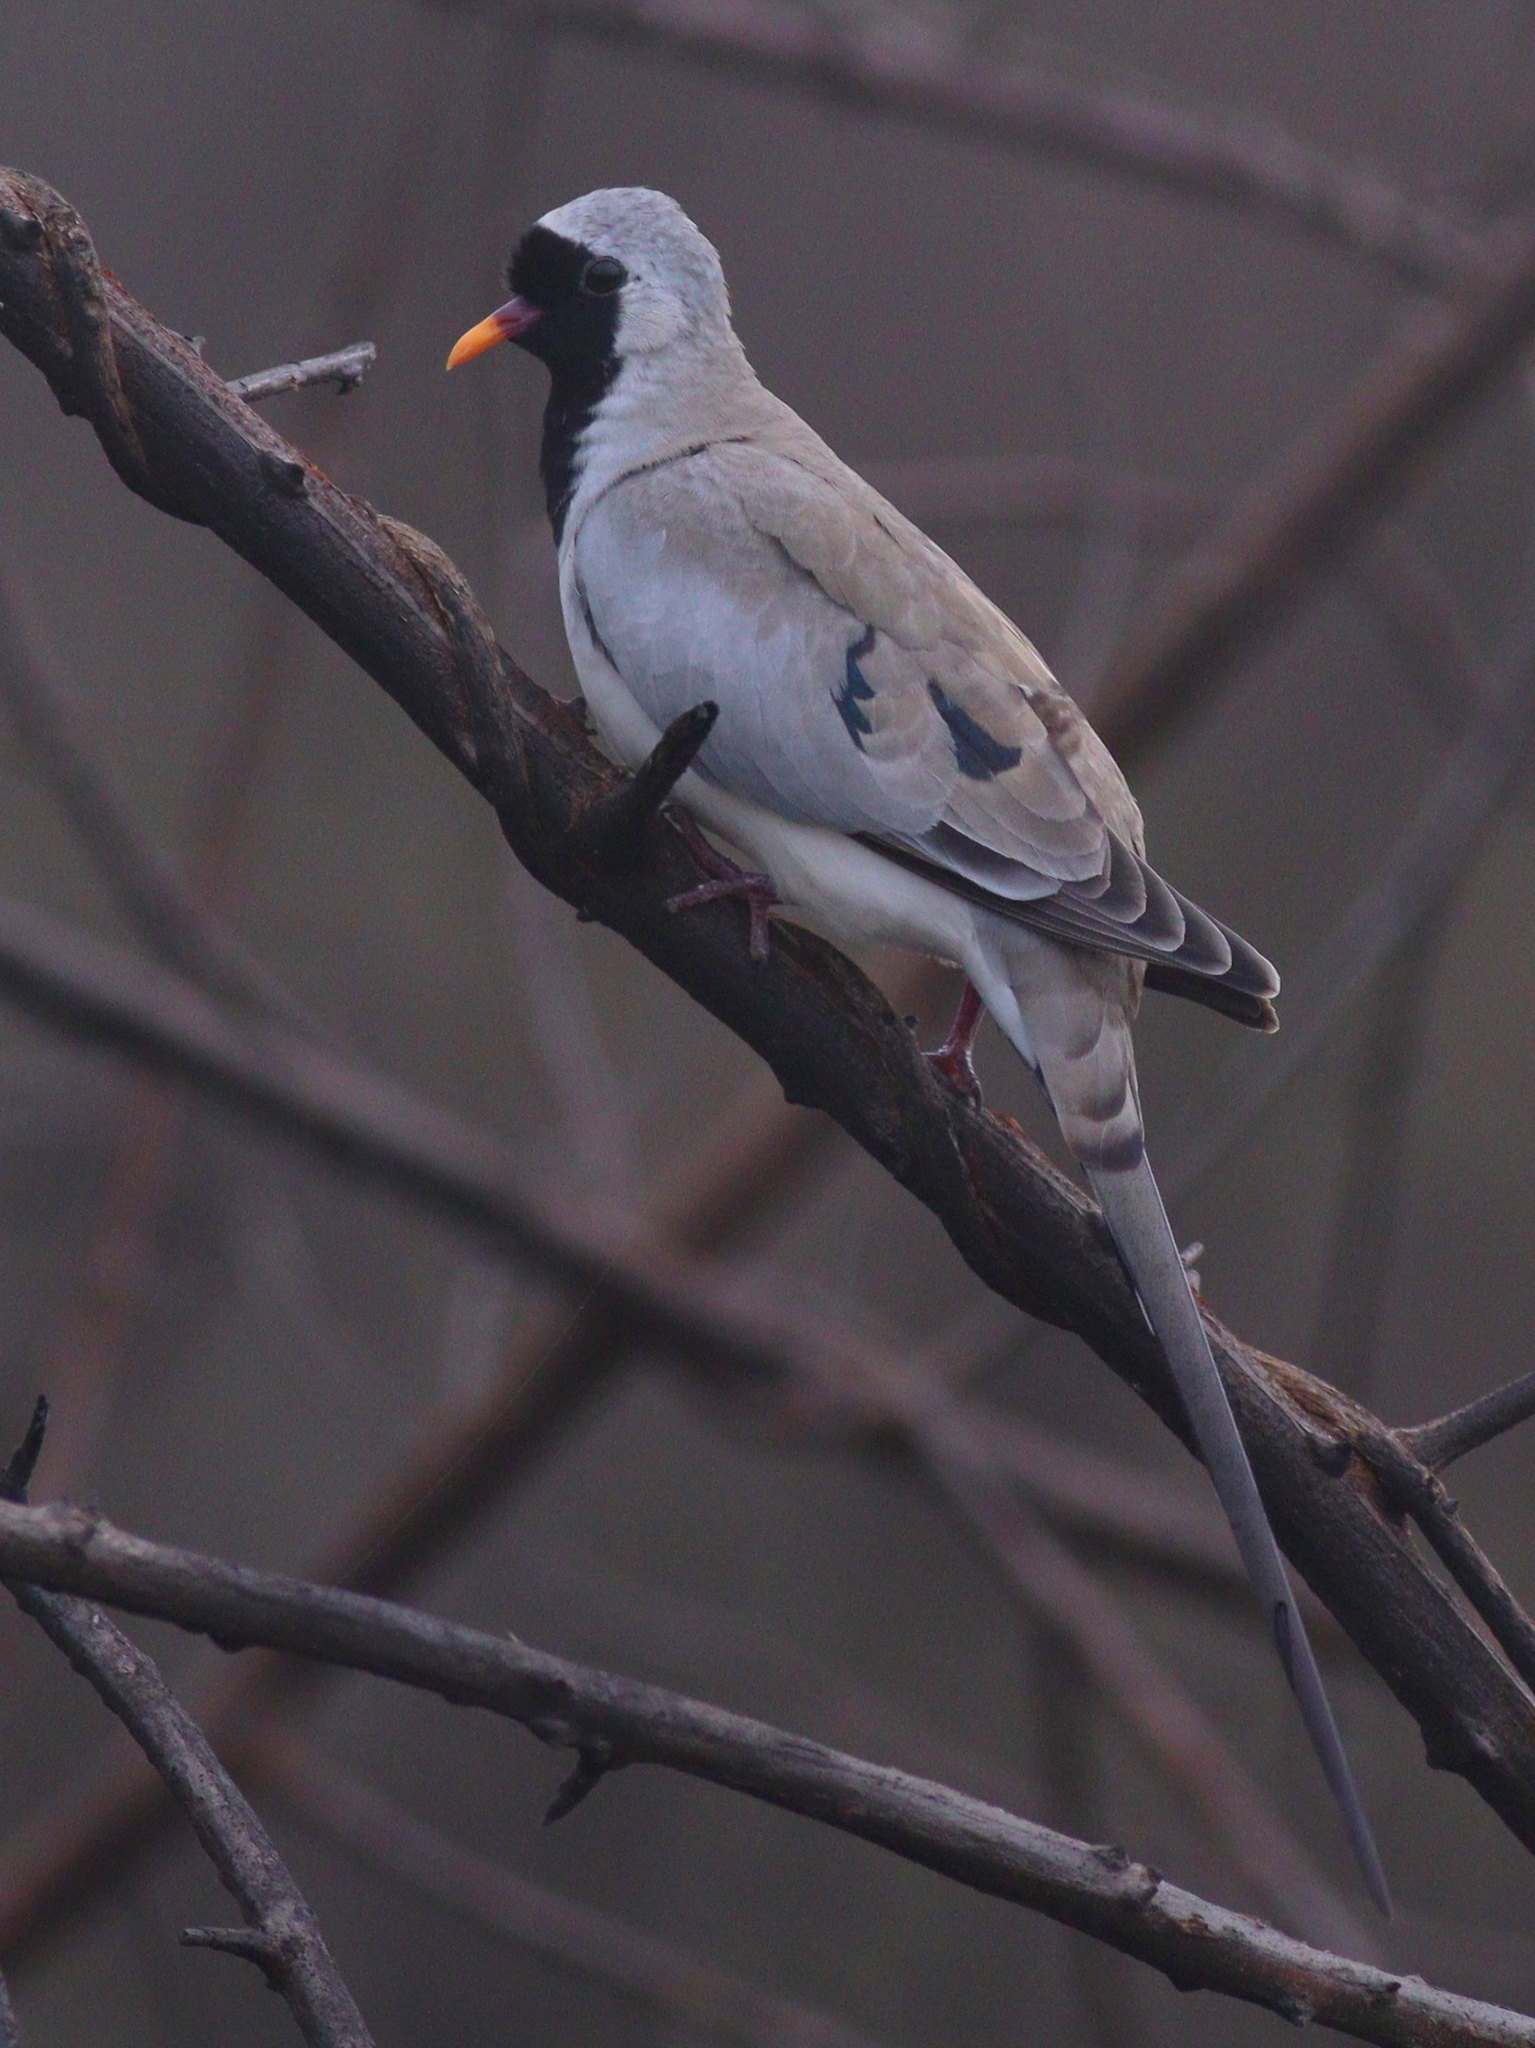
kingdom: Animalia
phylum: Chordata
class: Aves
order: Columbiformes
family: Columbidae
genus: Oena
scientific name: Oena capensis
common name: Namaqua dove
